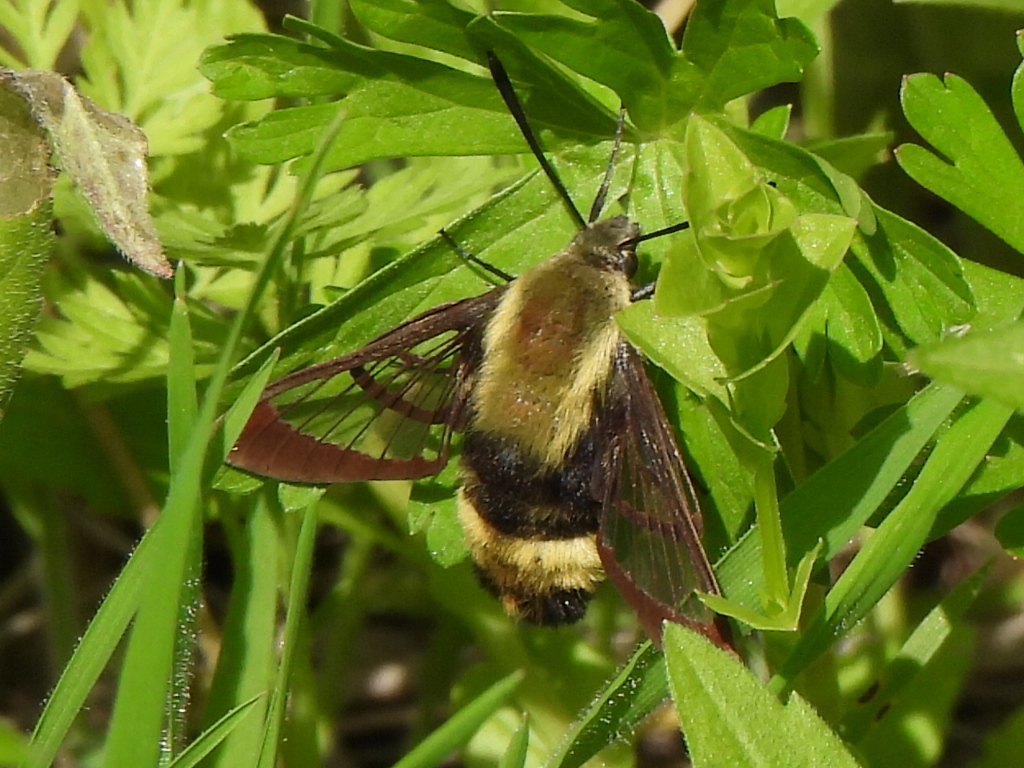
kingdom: Animalia
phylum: Arthropoda
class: Insecta
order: Lepidoptera
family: Sphingidae
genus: Hemaris
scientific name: Hemaris diffinis
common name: Bumblebee moth
